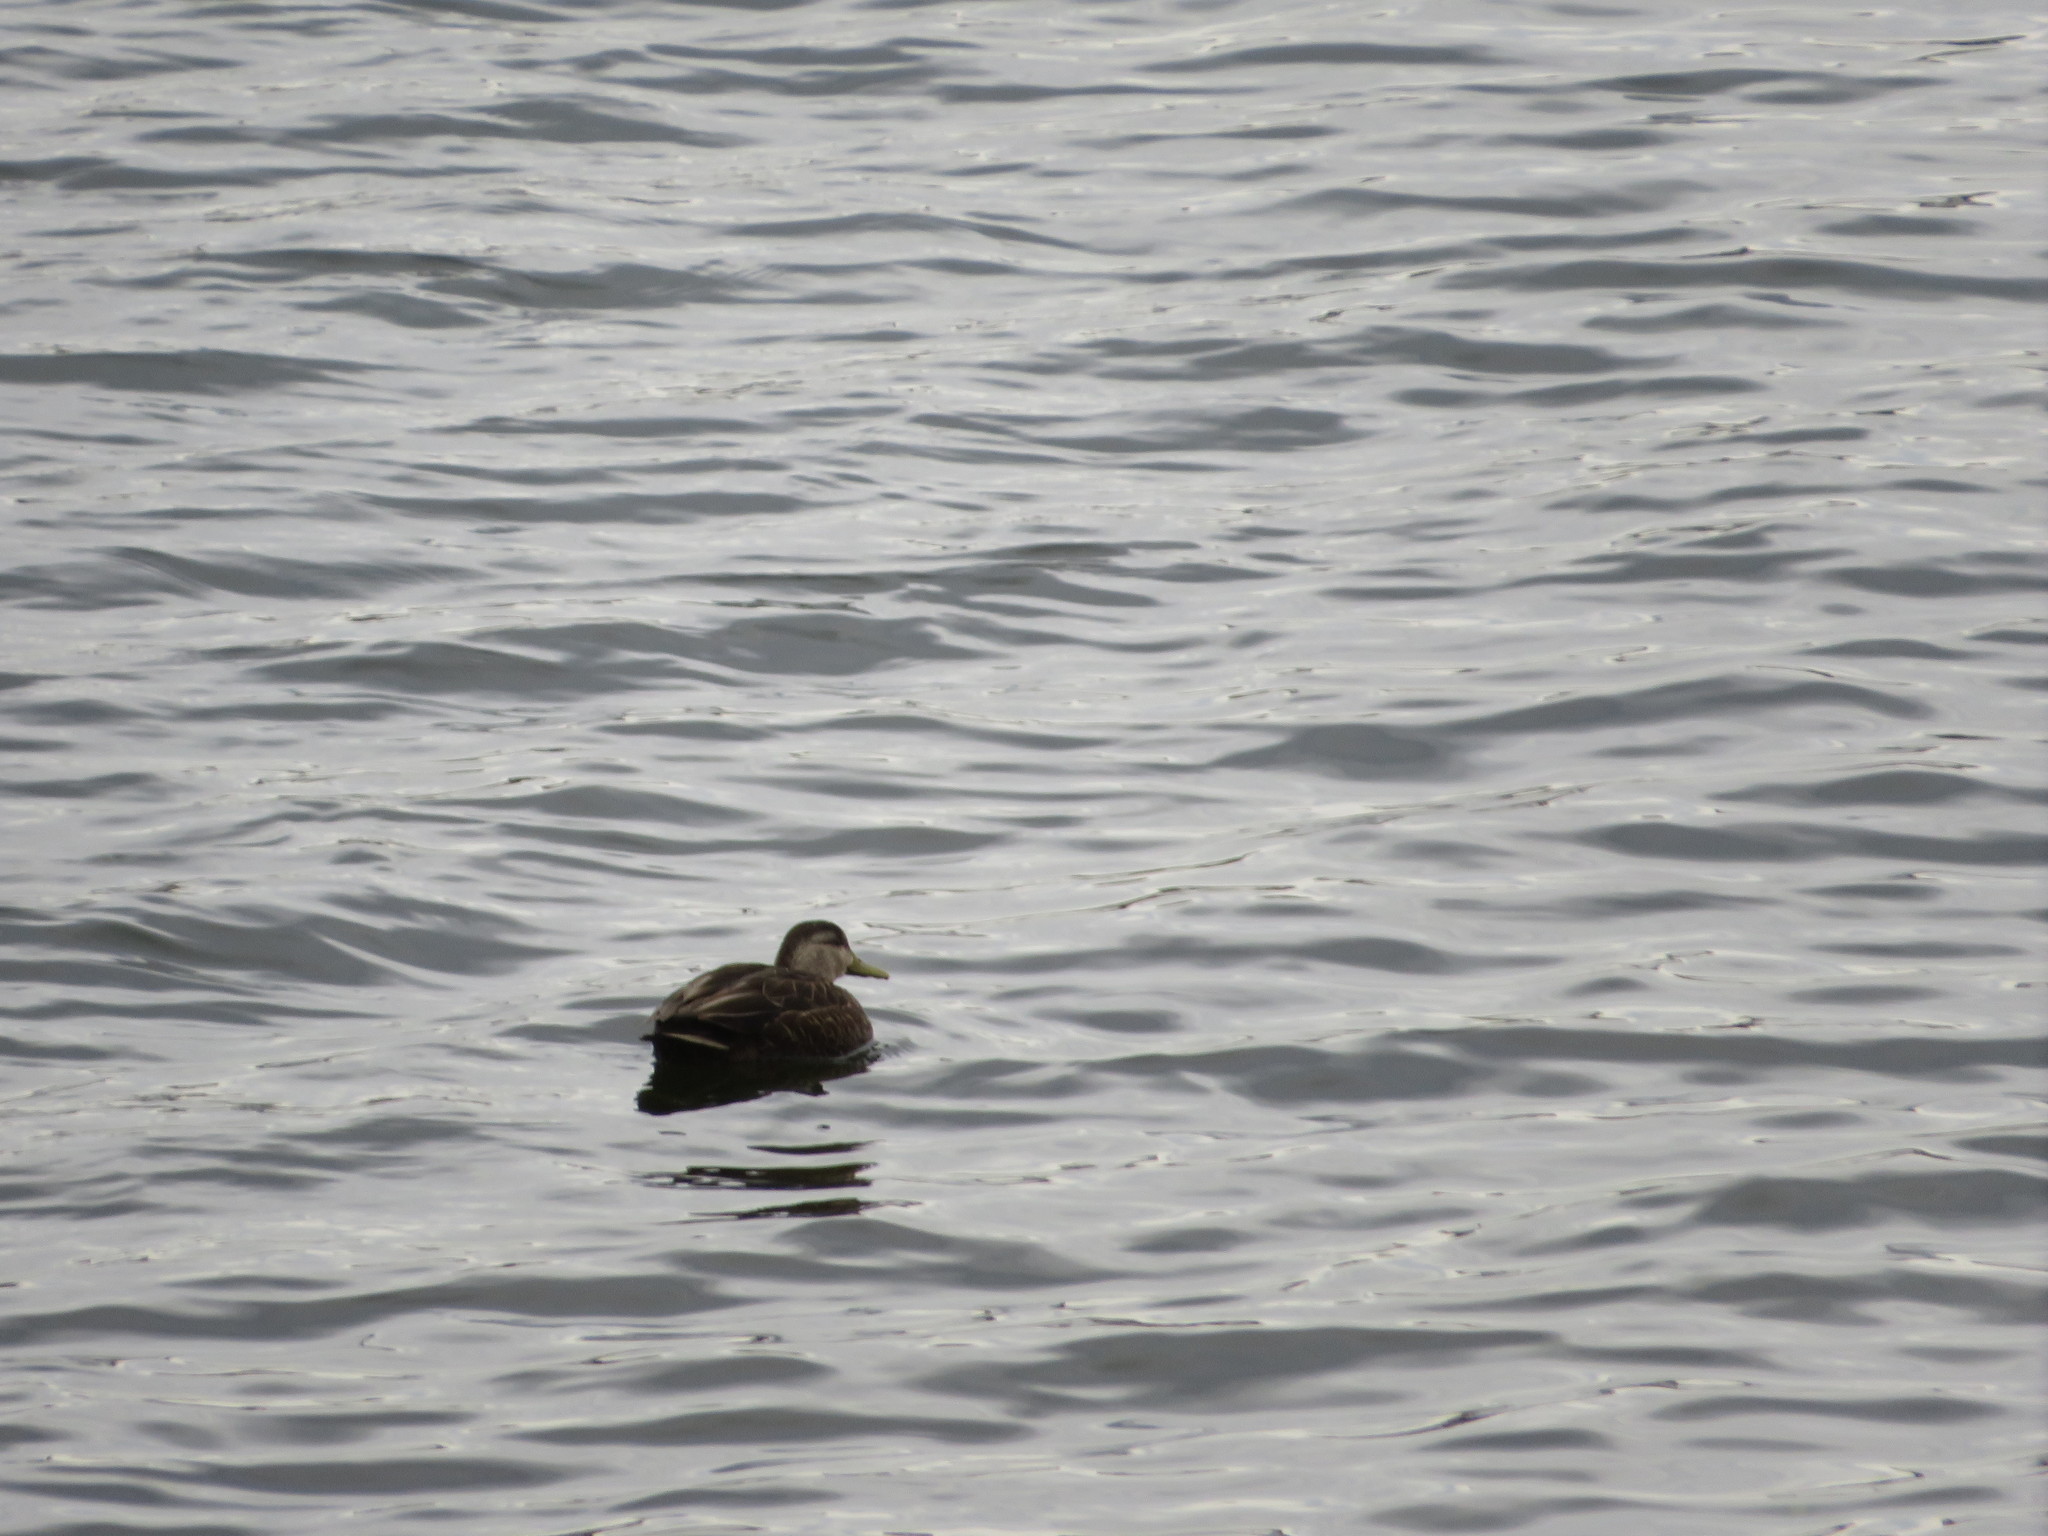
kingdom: Animalia
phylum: Chordata
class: Aves
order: Anseriformes
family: Anatidae
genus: Anas
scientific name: Anas rubripes
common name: American black duck
